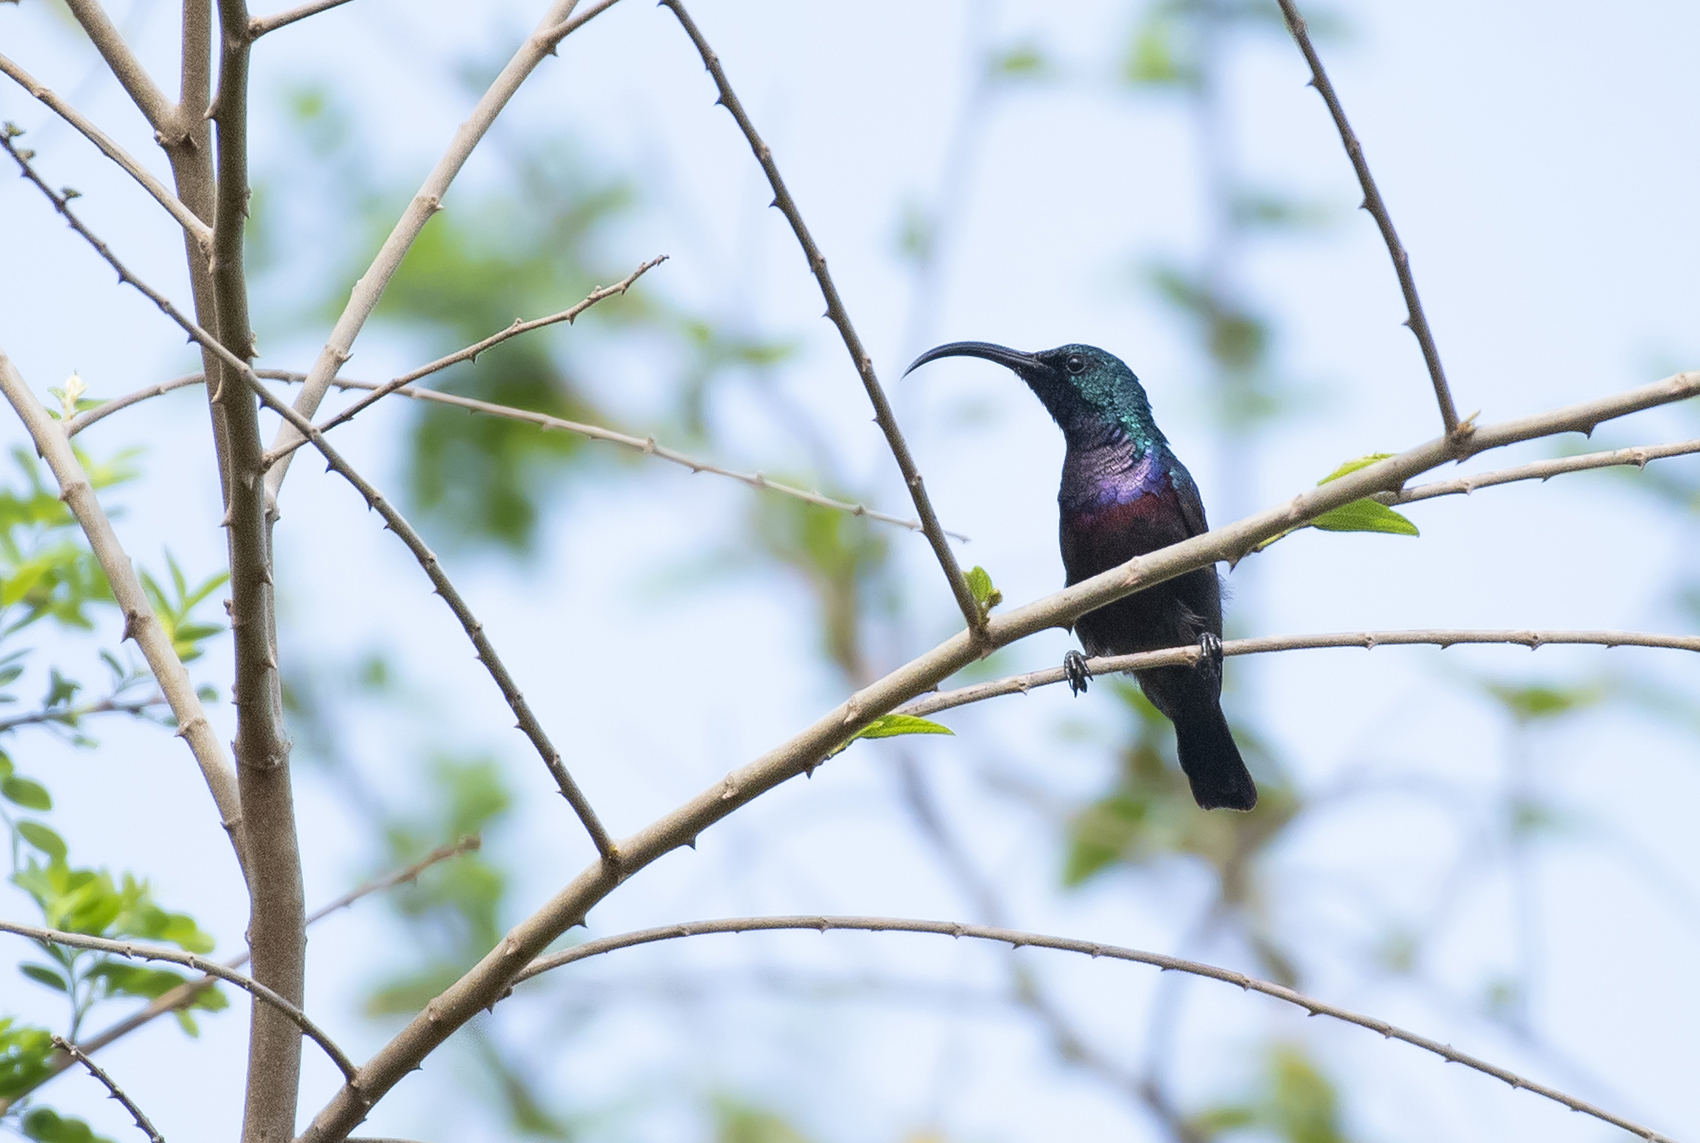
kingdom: Animalia
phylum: Chordata
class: Aves
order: Passeriformes
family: Nectariniidae
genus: Cinnyris
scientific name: Cinnyris lotenius
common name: Loten's sunbird
